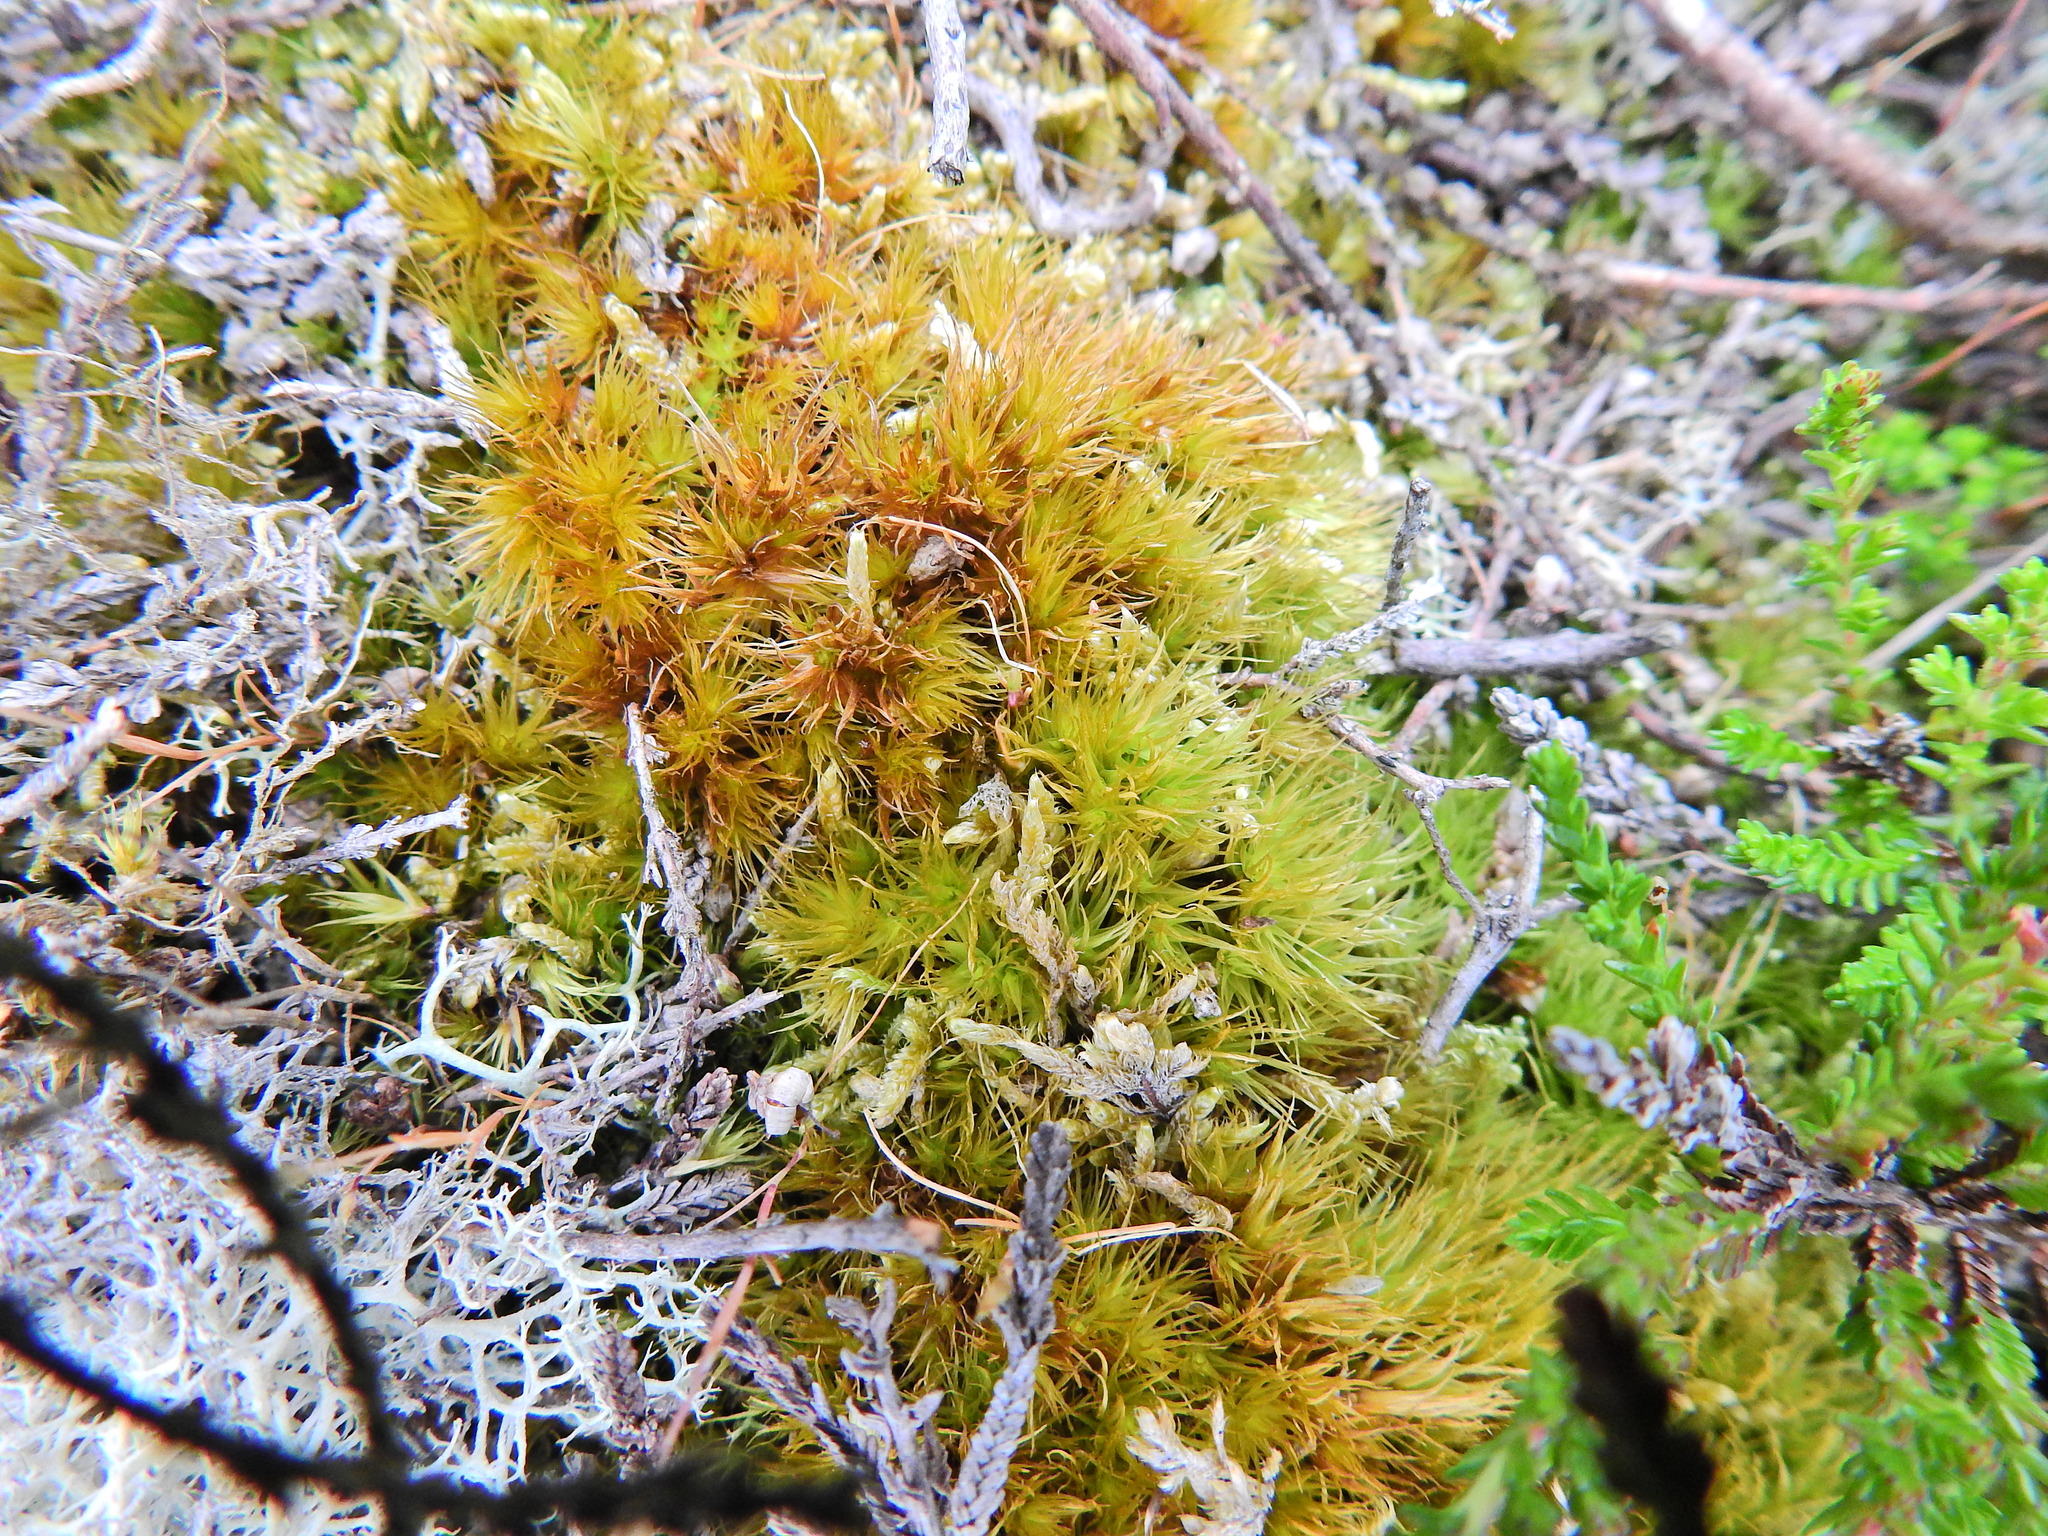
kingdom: Plantae
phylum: Bryophyta
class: Bryopsida
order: Dicranales
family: Dicranaceae
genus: Dicranum
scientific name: Dicranum scoparium
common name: Broom fork-moss
